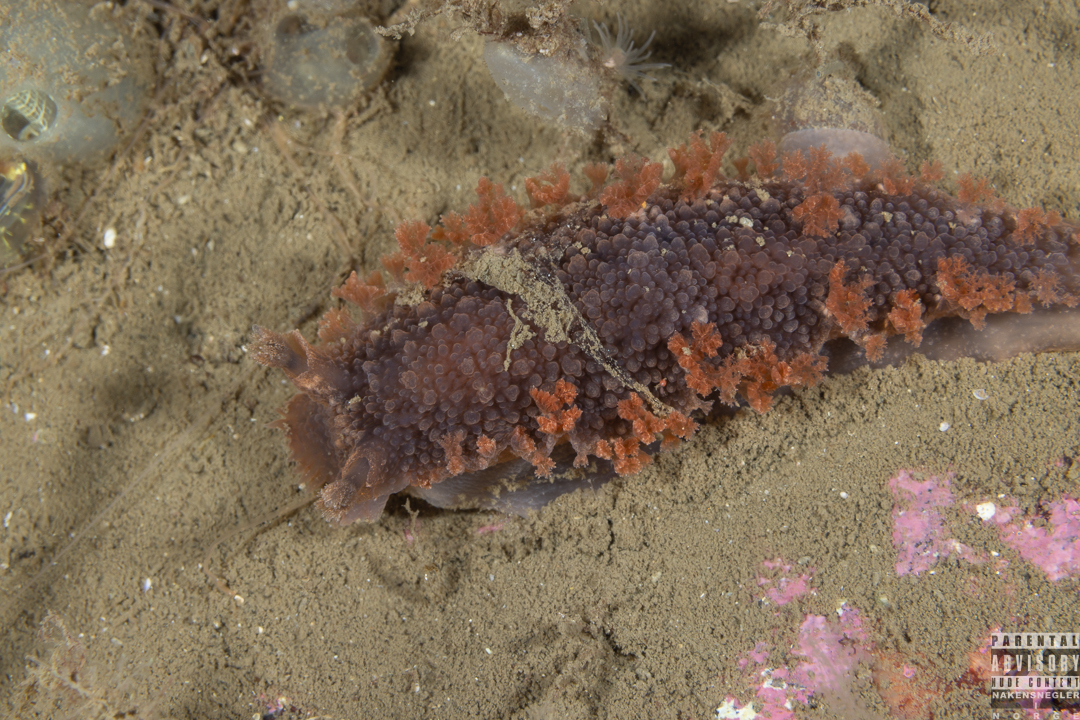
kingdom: Animalia
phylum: Mollusca
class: Gastropoda
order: Nudibranchia
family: Tritoniidae
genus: Tritonia
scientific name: Tritonia hombergii
